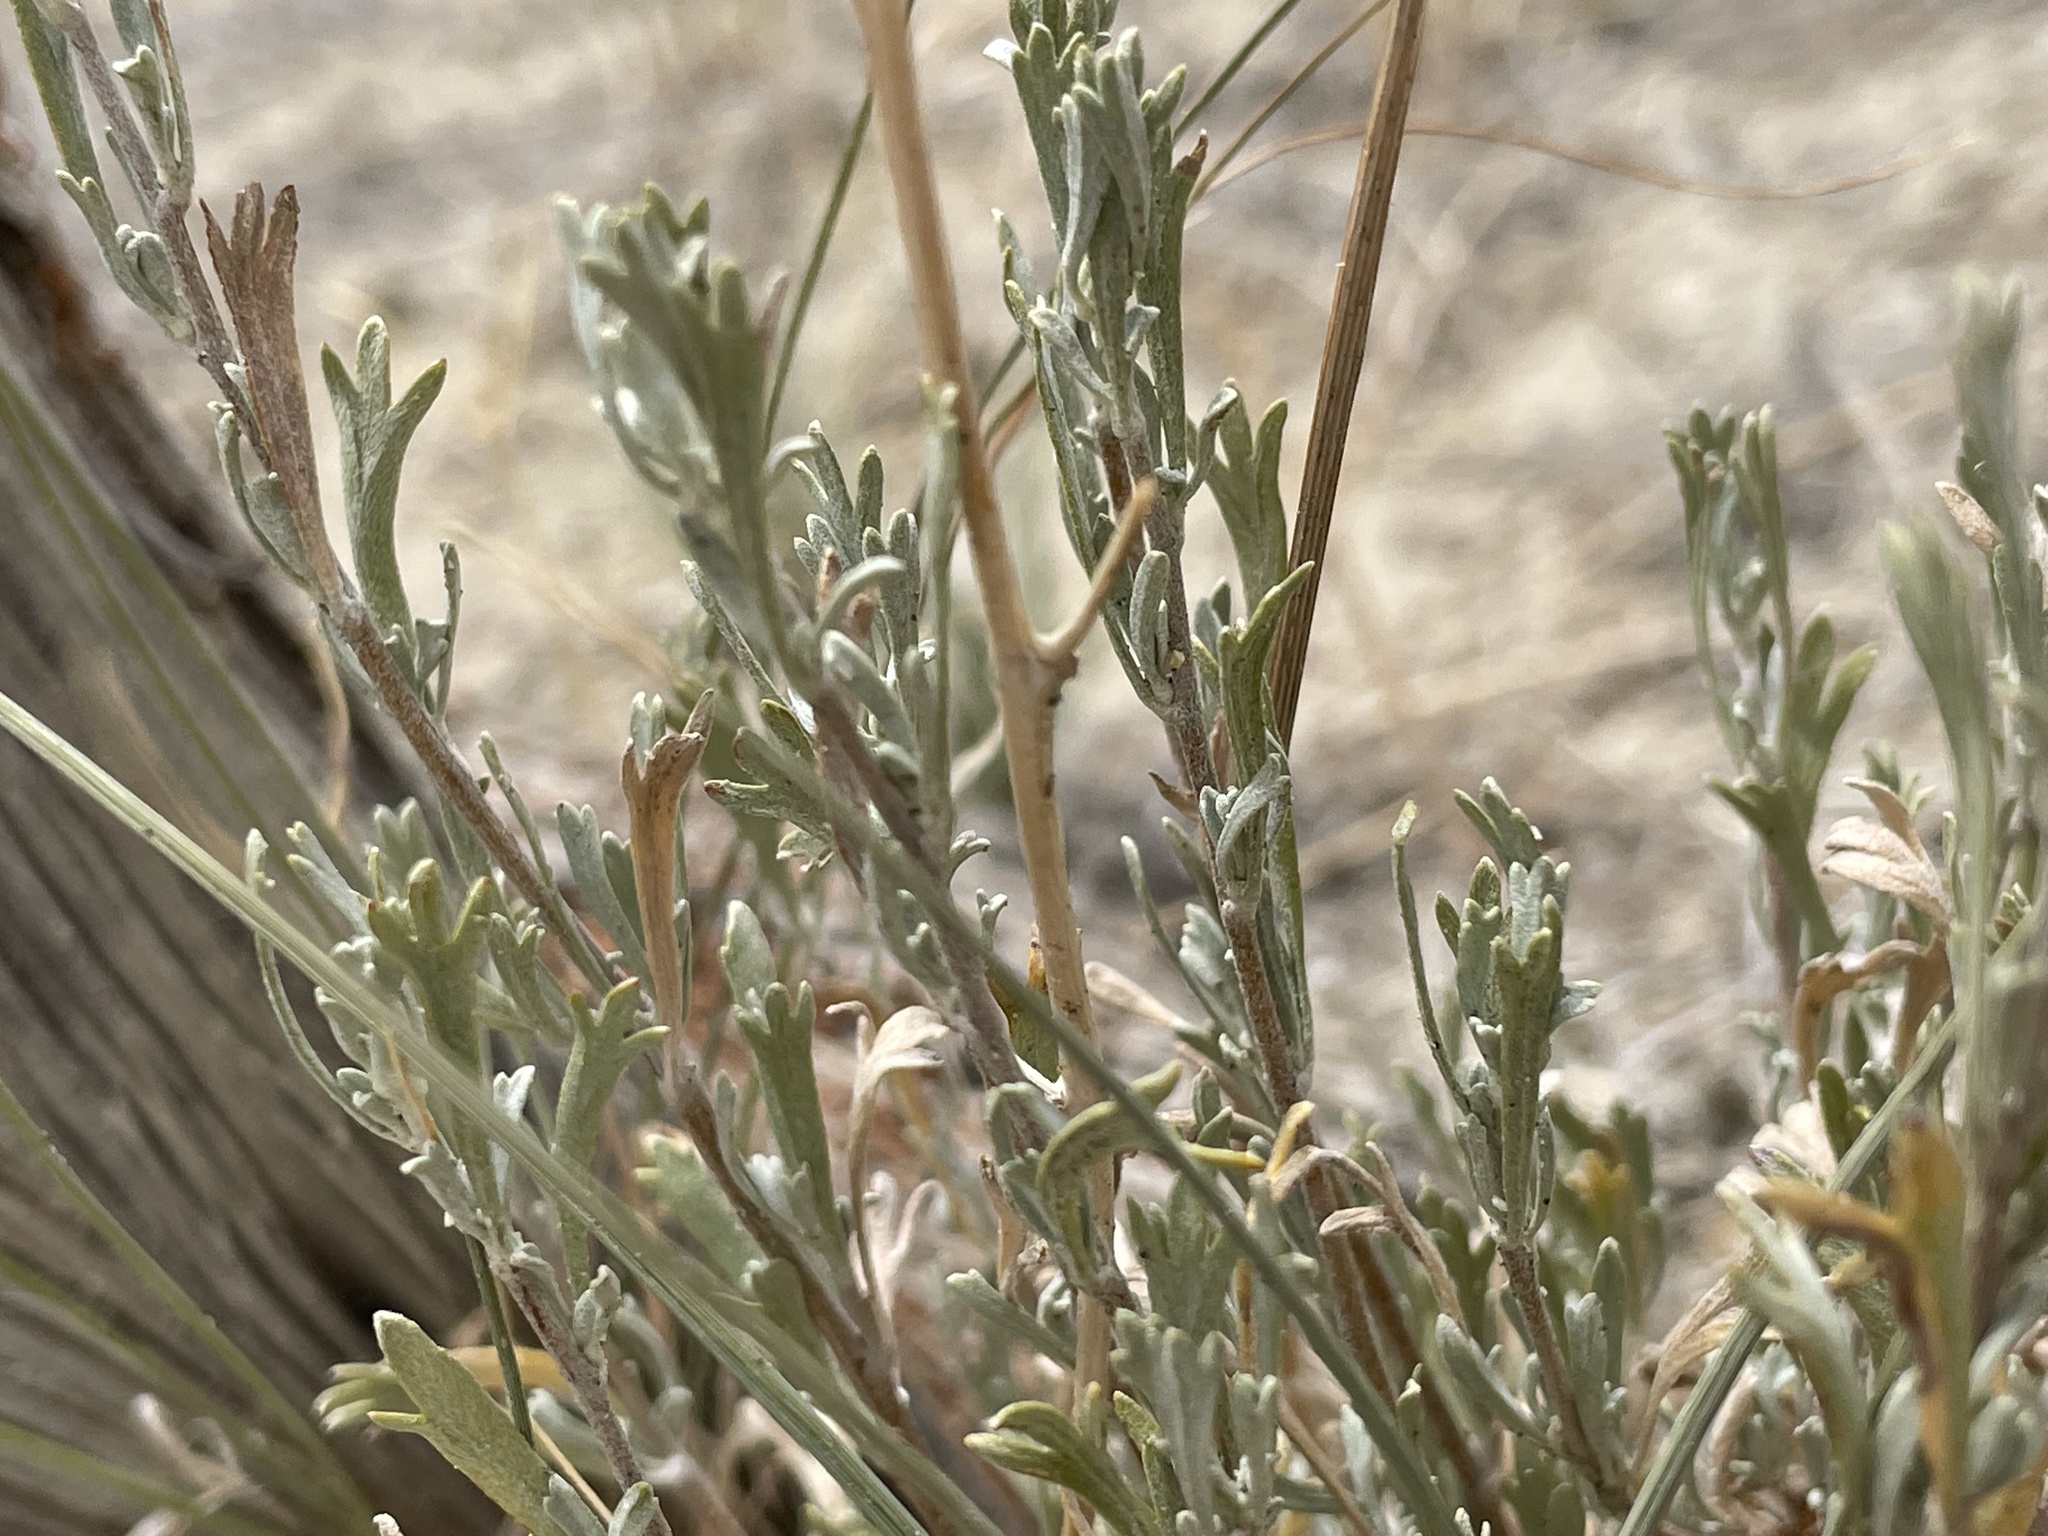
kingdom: Plantae
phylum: Tracheophyta
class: Magnoliopsida
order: Asterales
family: Asteraceae
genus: Artemisia
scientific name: Artemisia tridentata
